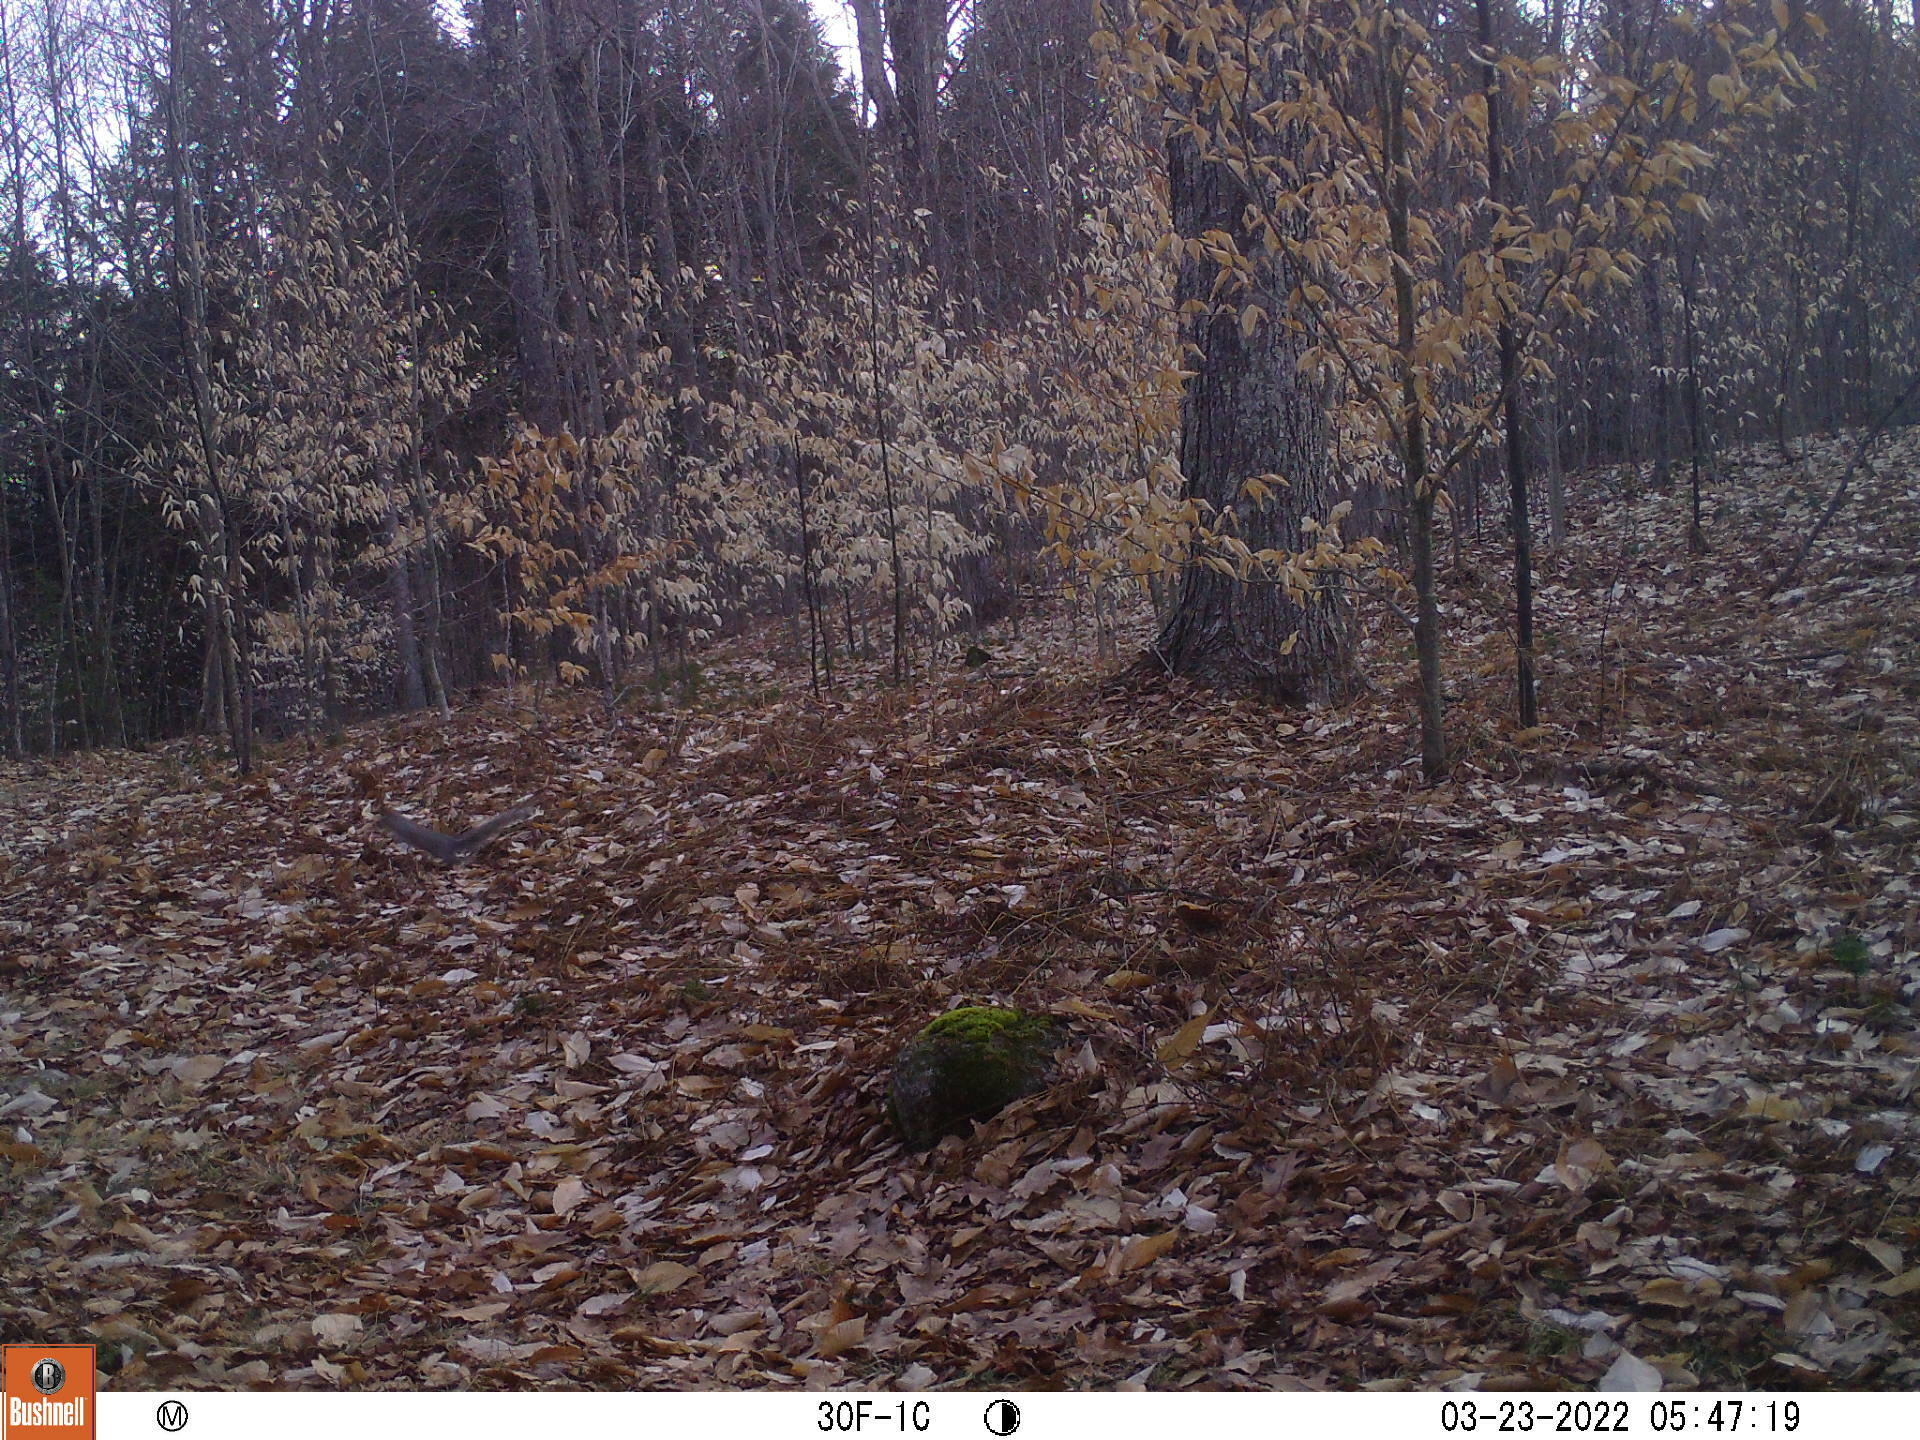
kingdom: Animalia
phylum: Chordata
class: Mammalia
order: Rodentia
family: Sciuridae
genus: Sciurus
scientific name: Sciurus carolinensis
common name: Eastern gray squirrel
